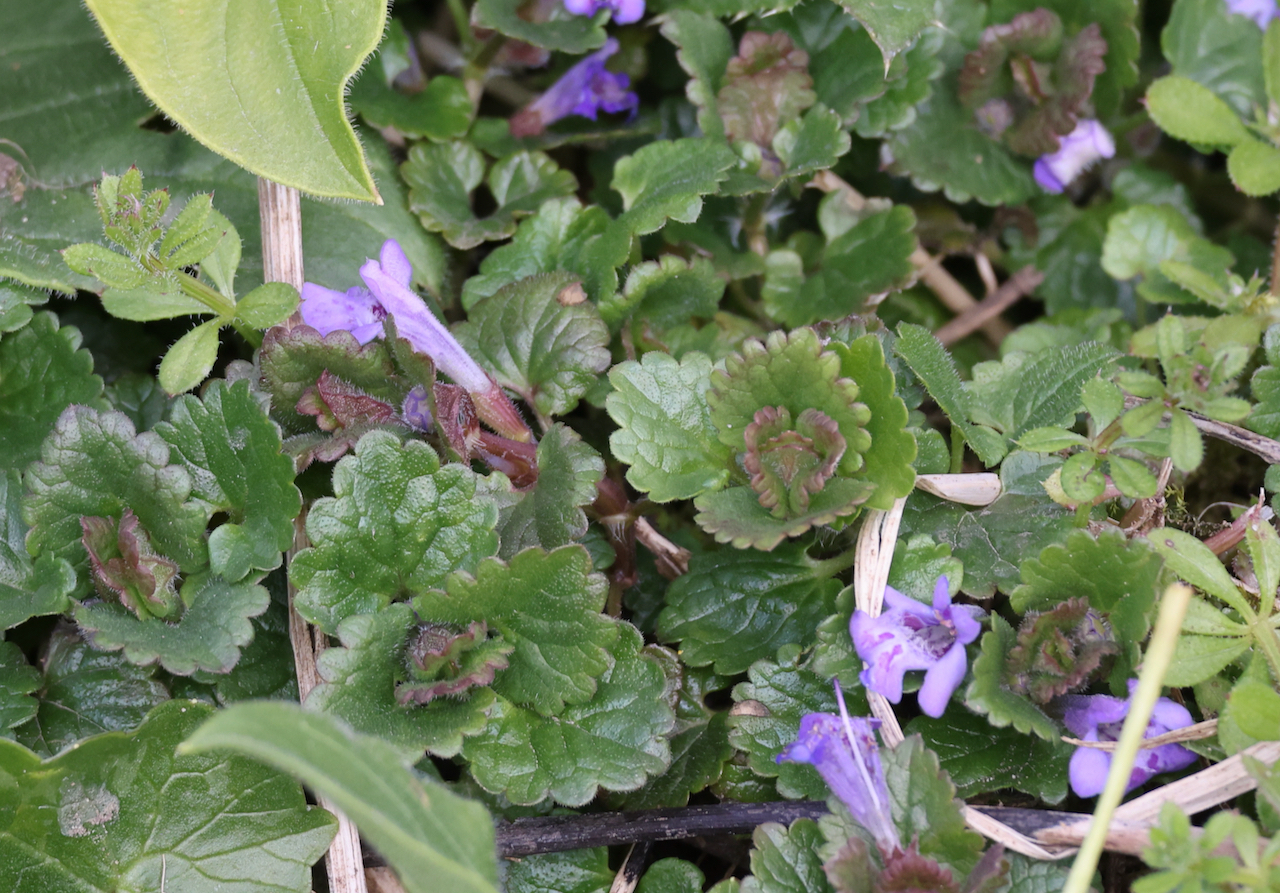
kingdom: Plantae
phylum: Tracheophyta
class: Magnoliopsida
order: Lamiales
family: Lamiaceae
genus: Glechoma
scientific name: Glechoma hederacea
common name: Ground ivy
